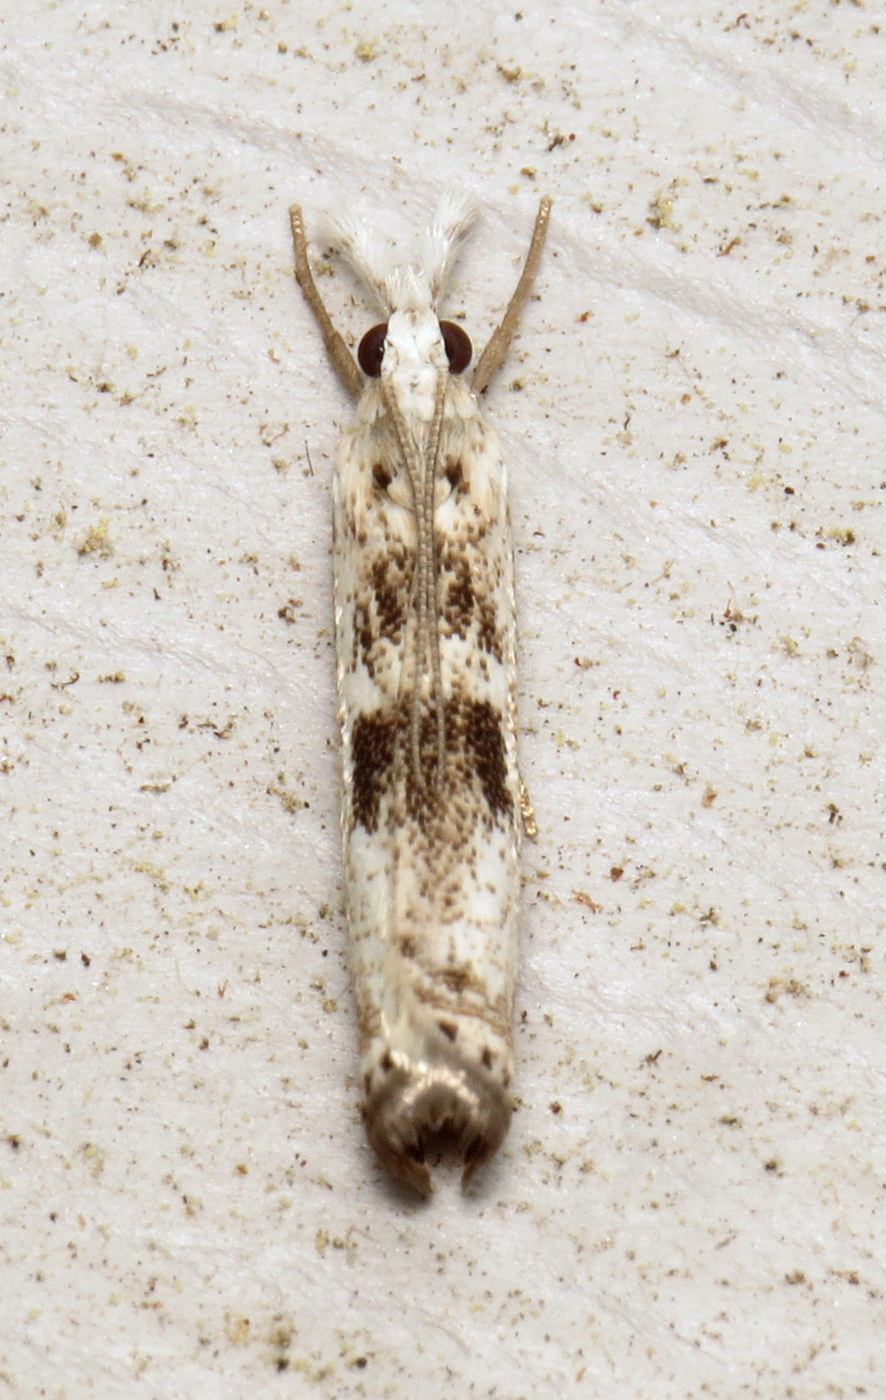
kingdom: Animalia
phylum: Arthropoda
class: Insecta
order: Lepidoptera
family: Crambidae
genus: Microcrambus
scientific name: Microcrambus immunellus
